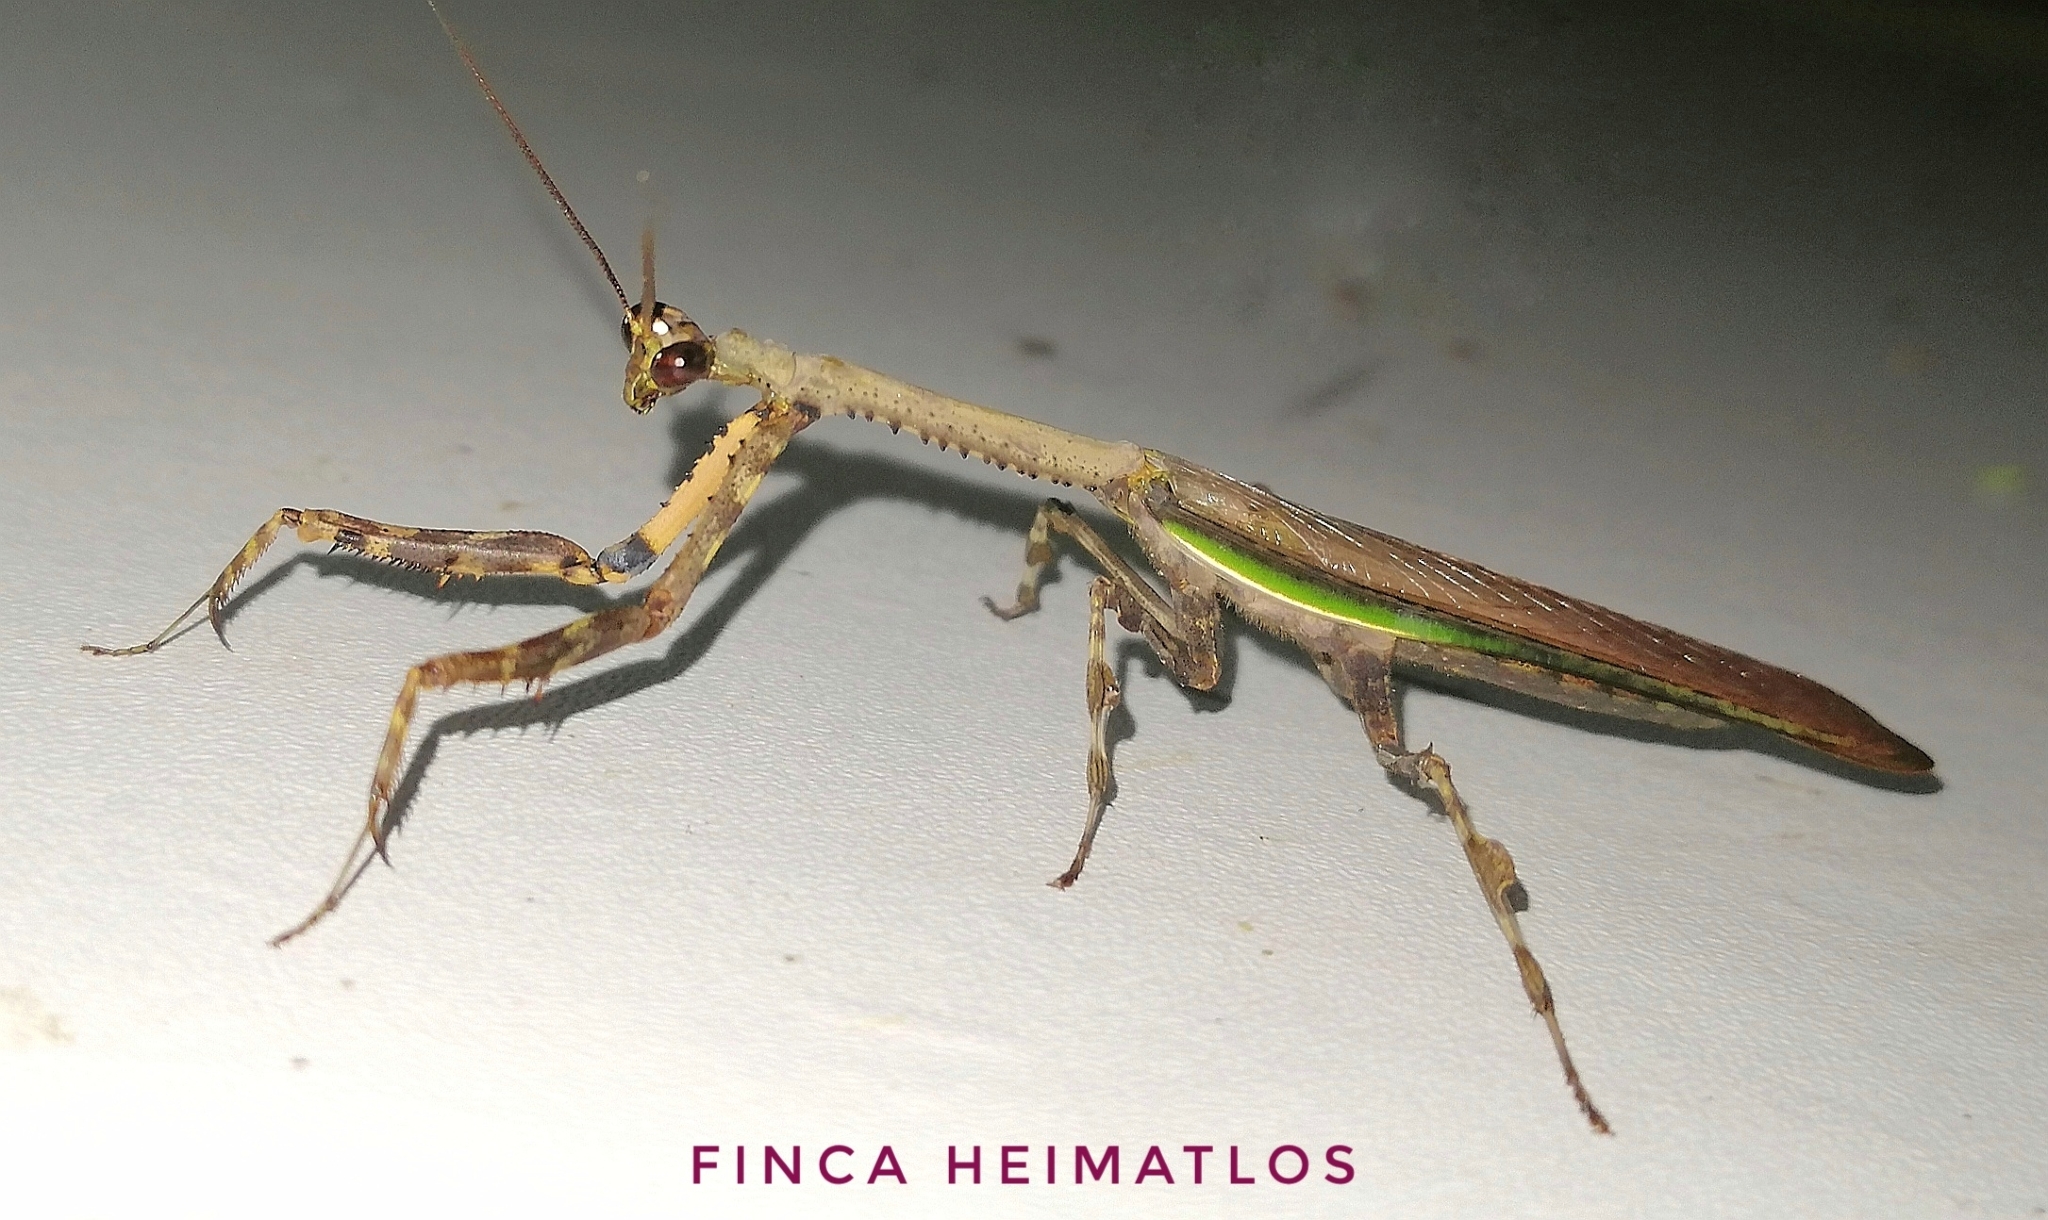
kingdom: Animalia
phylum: Arthropoda
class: Insecta
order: Mantodea
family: Mantidae
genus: Vates
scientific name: Vates biplagiata
